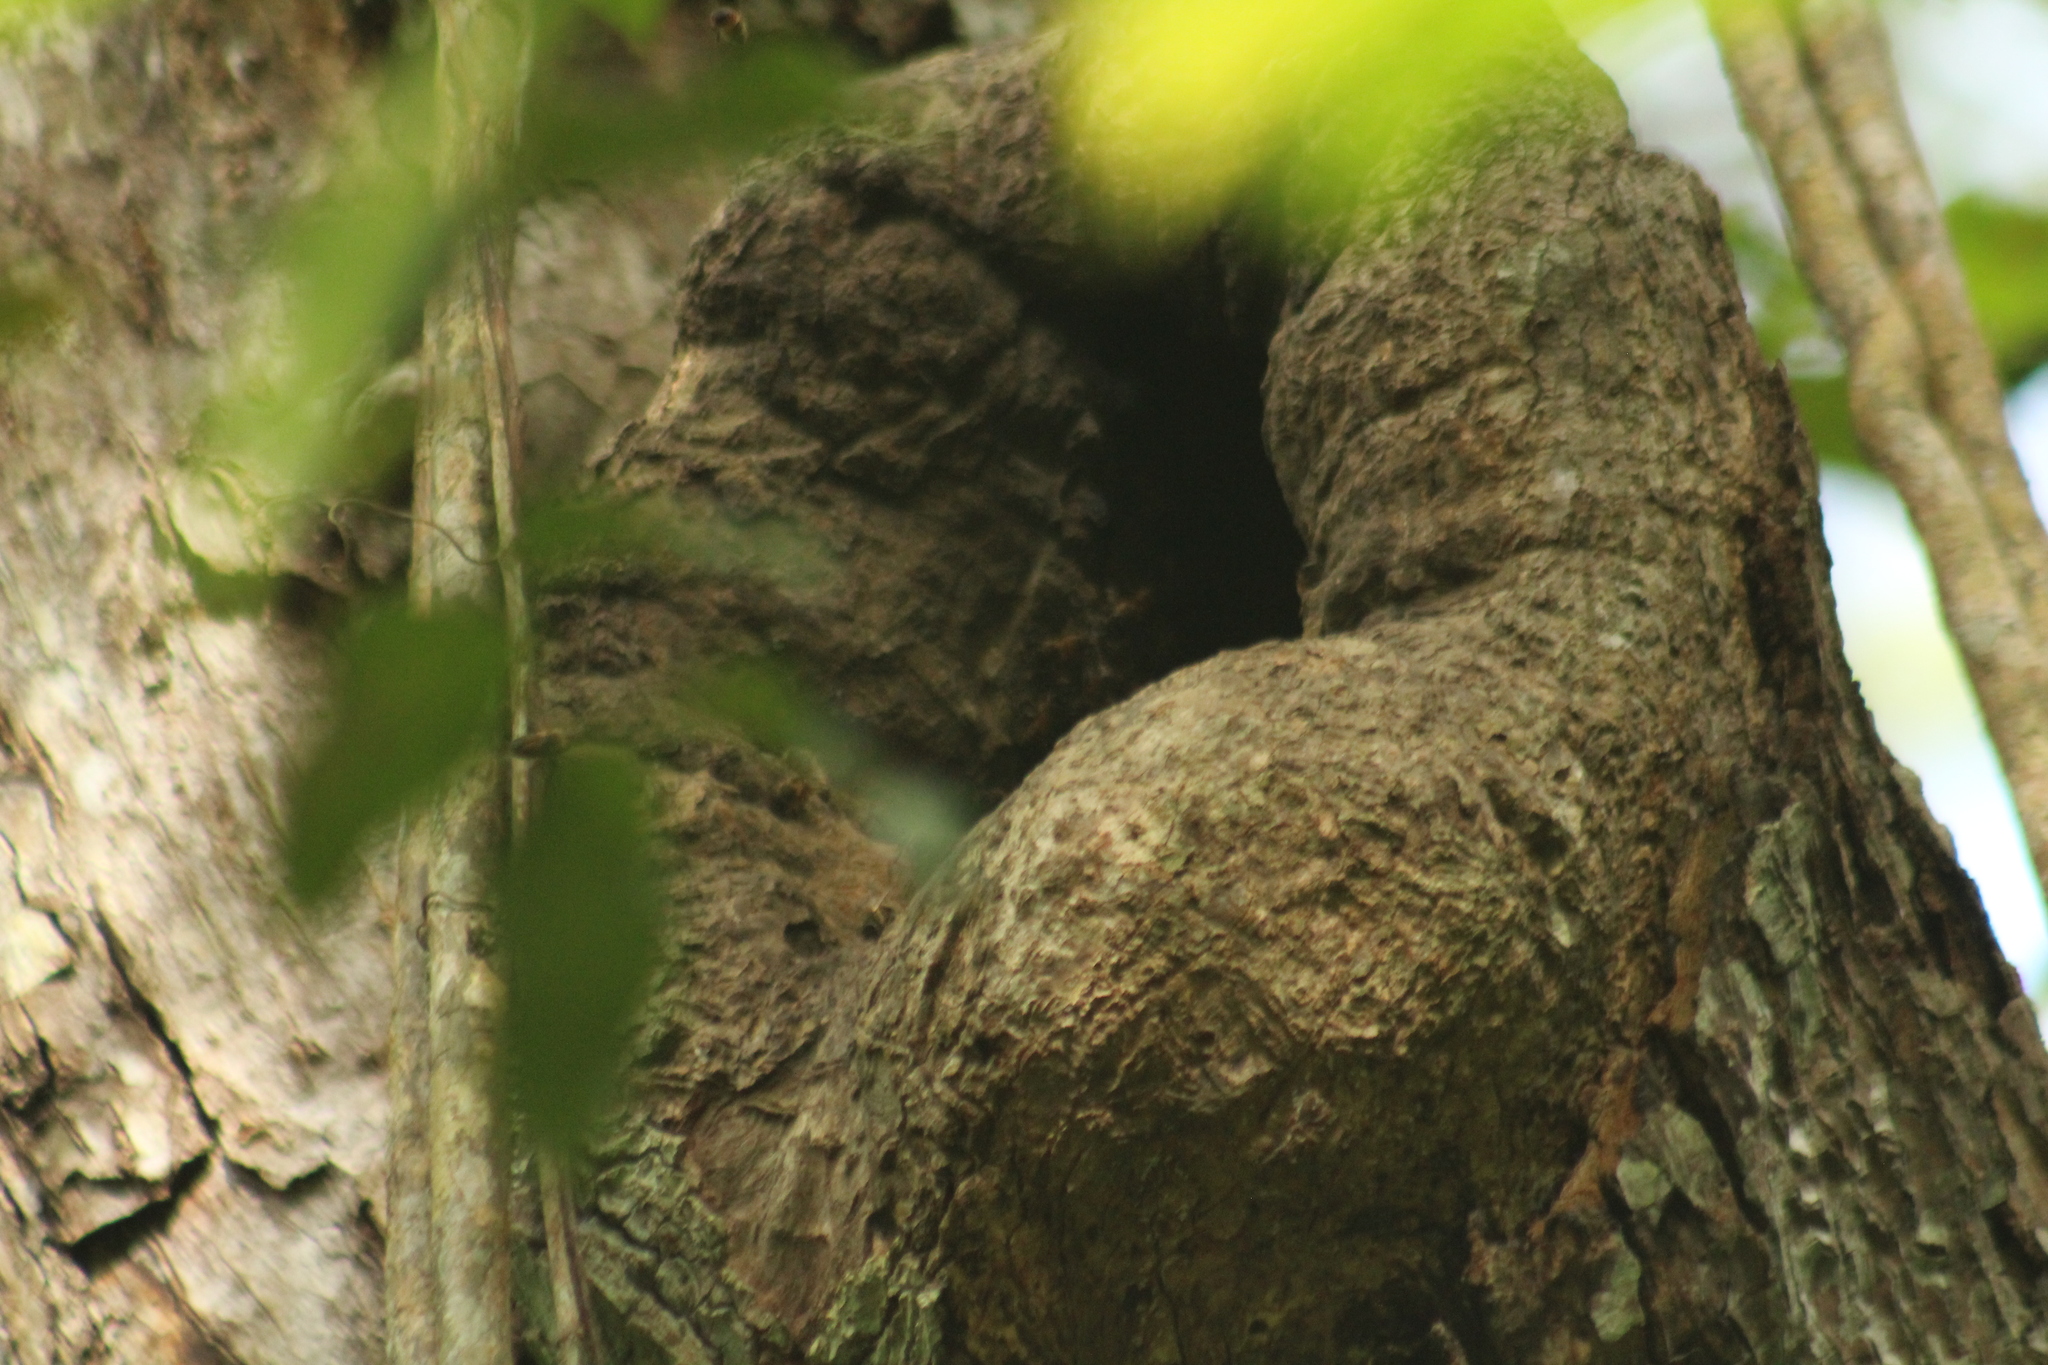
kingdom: Animalia
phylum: Arthropoda
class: Insecta
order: Hymenoptera
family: Apidae
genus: Apis
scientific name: Apis mellifera
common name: Honey bee
